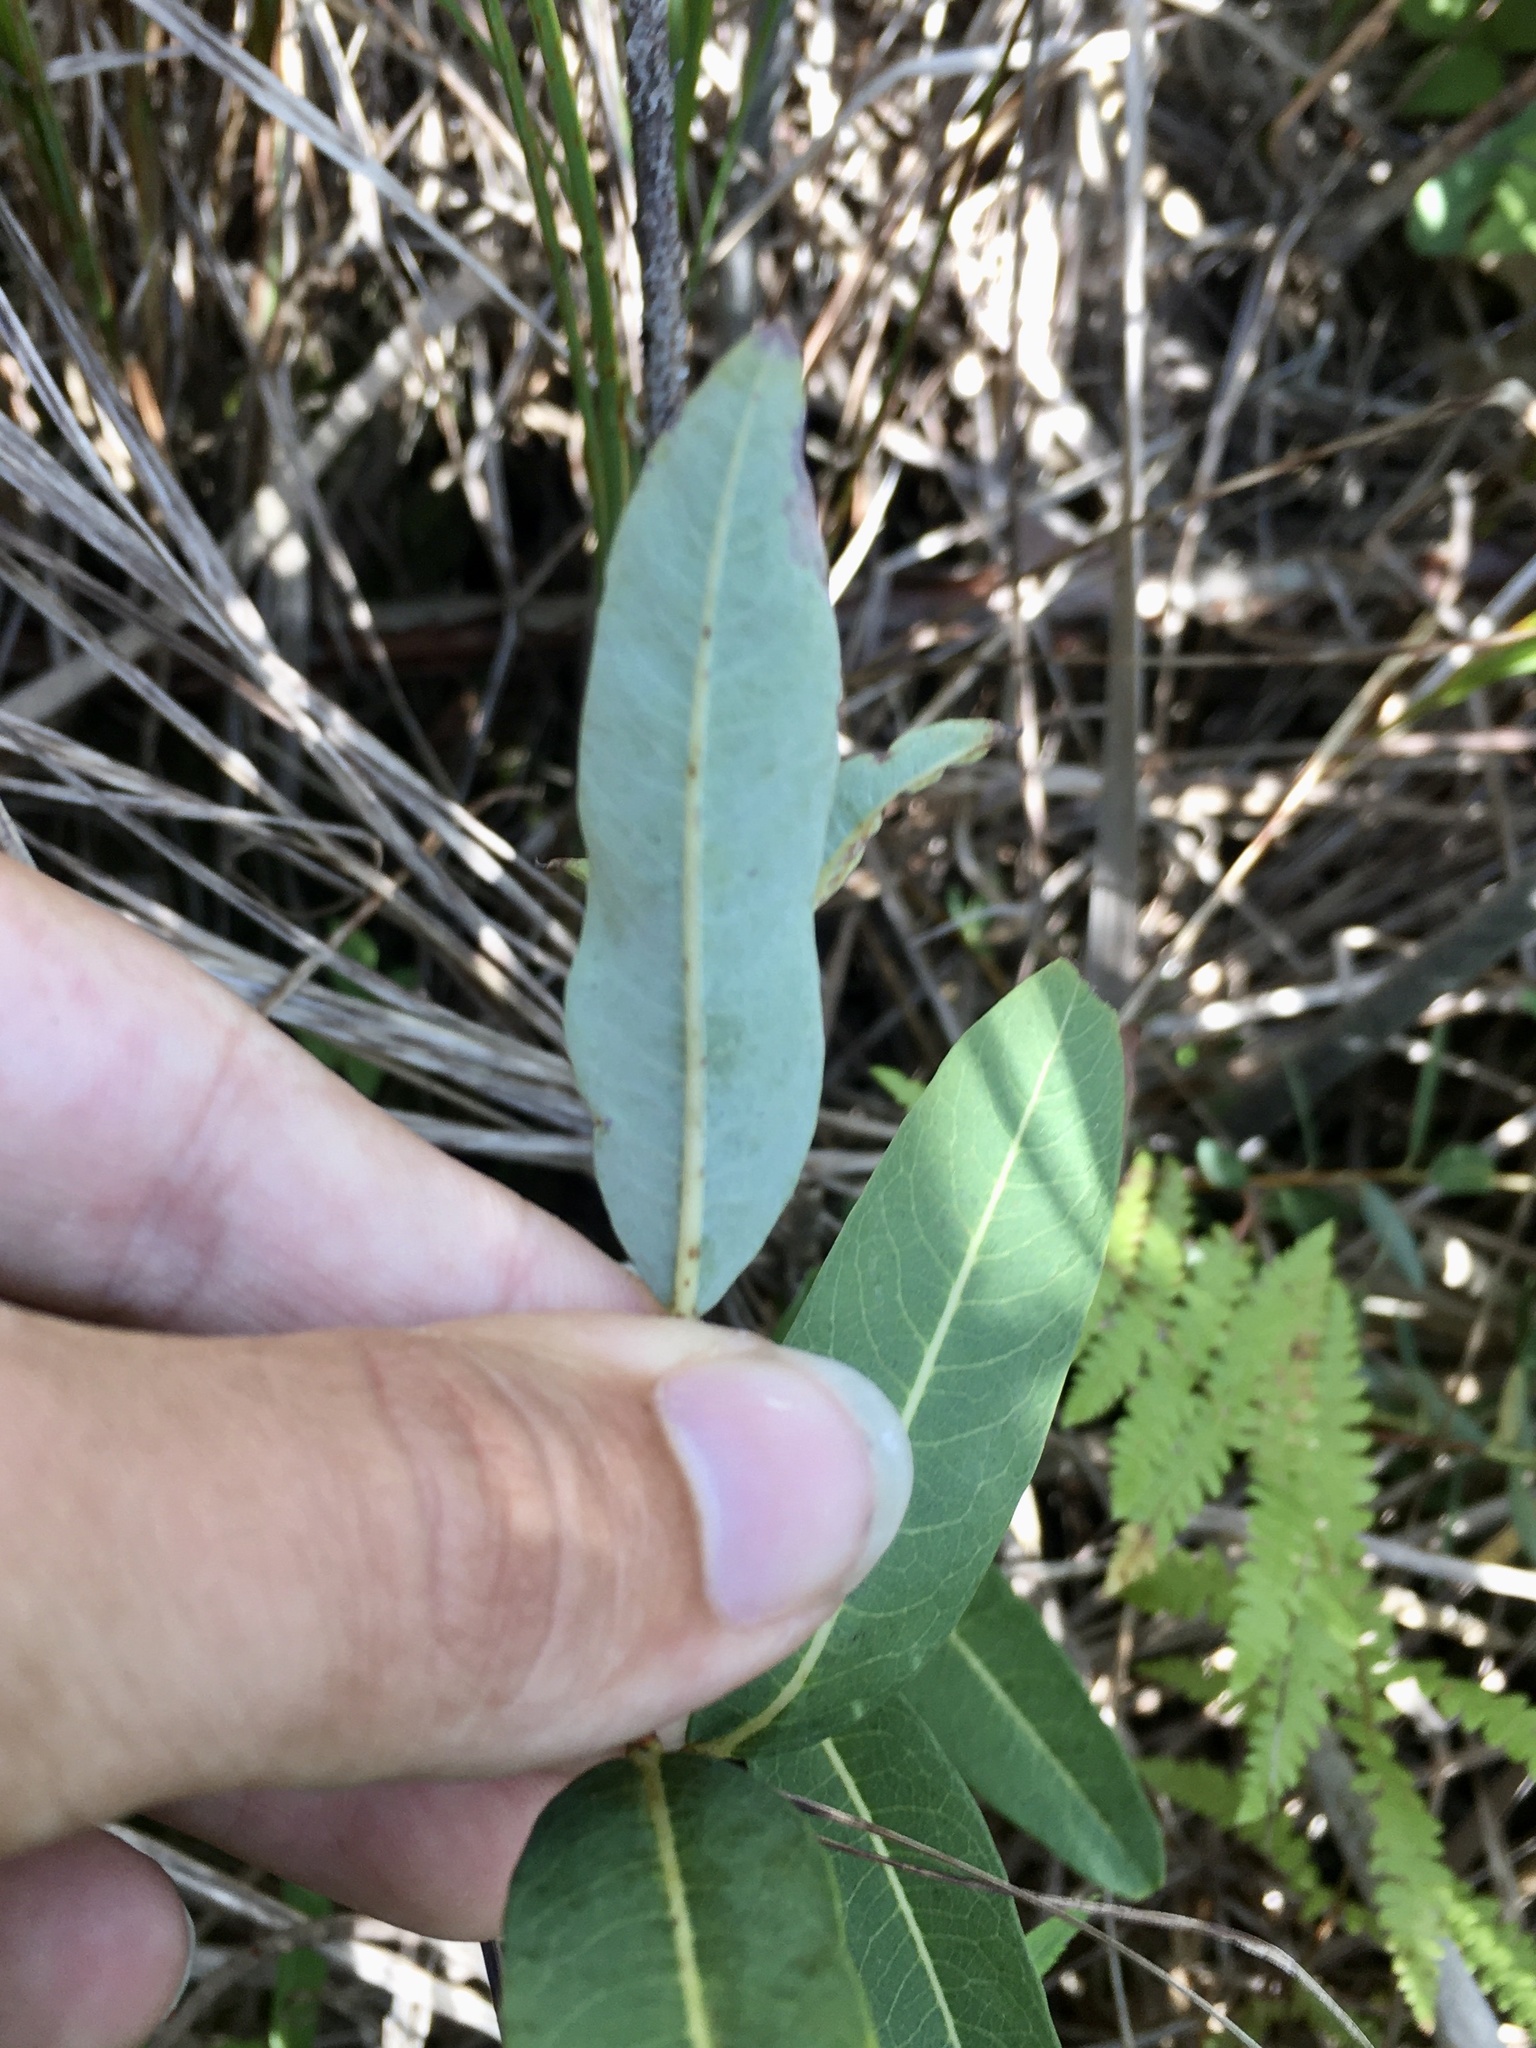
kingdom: Plantae
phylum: Tracheophyta
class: Magnoliopsida
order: Malpighiales
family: Salicaceae
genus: Salix
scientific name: Salix pedicellaris
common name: Bog willow
